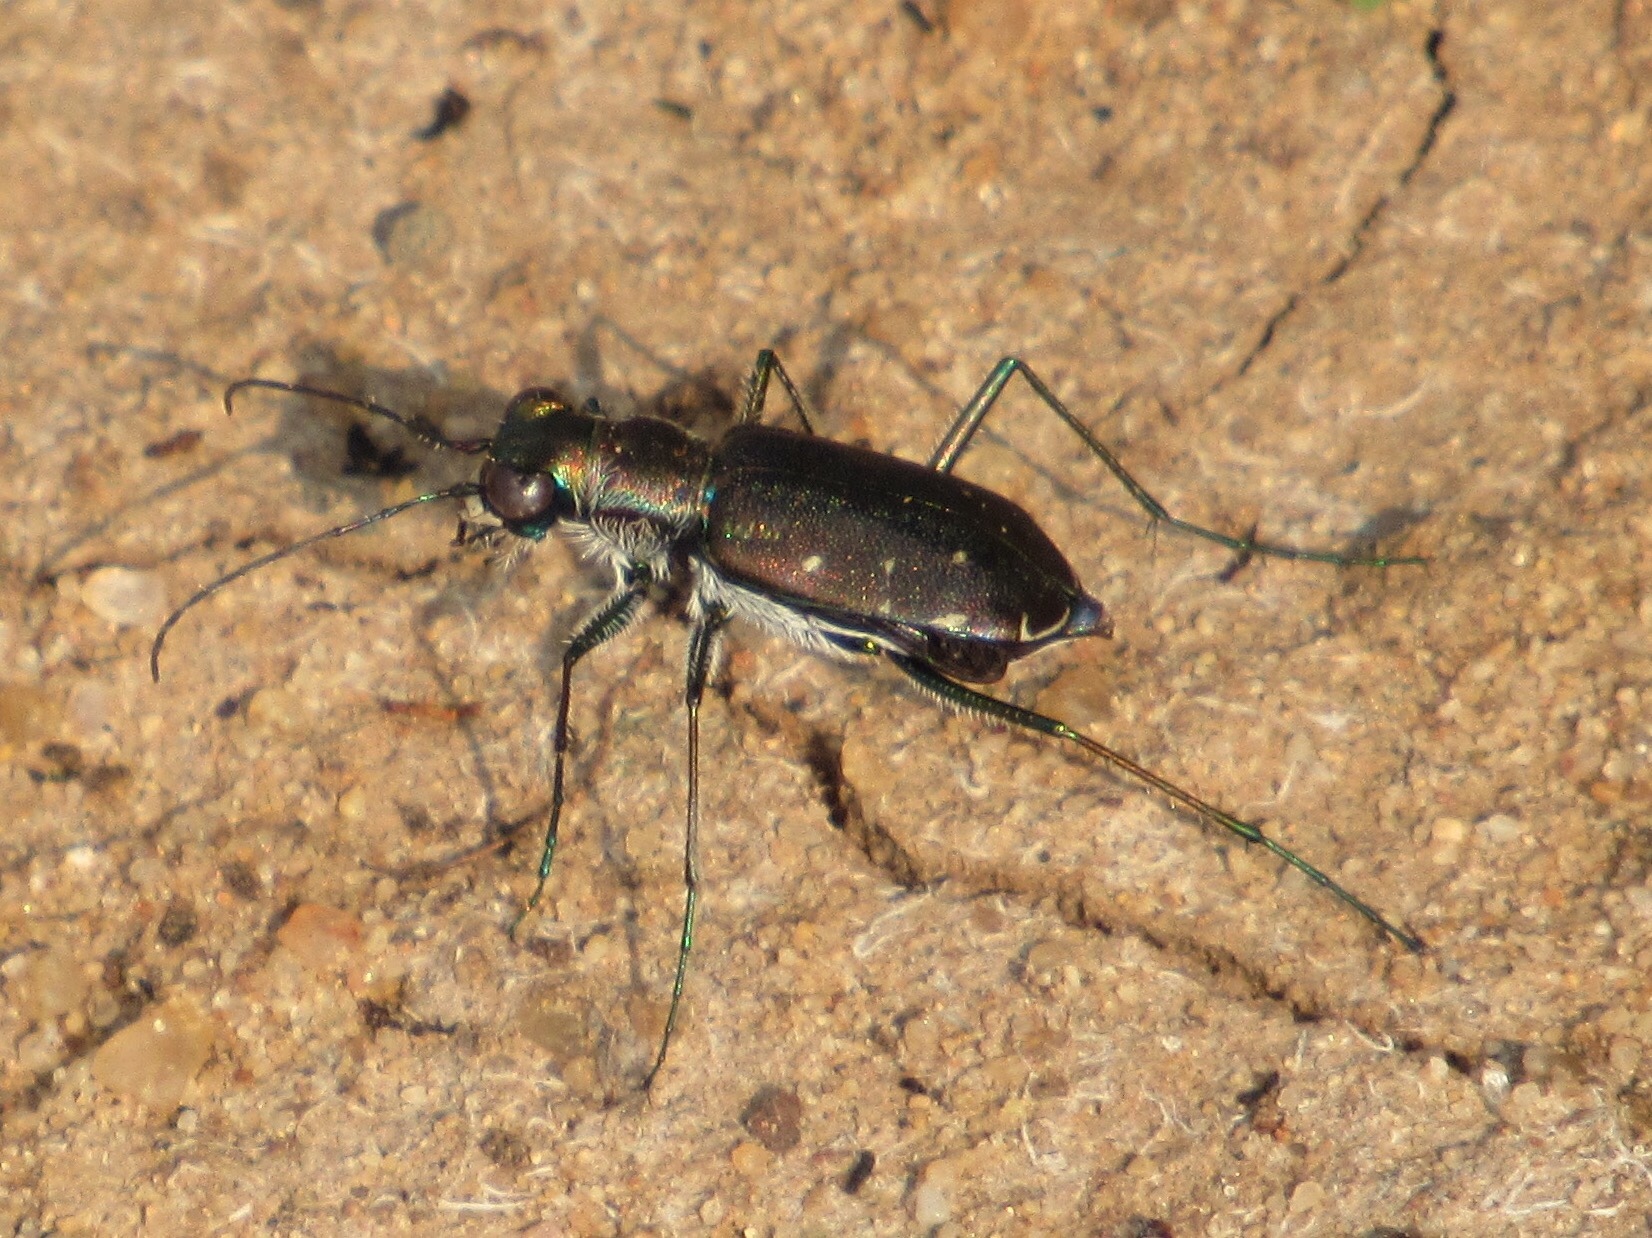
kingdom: Animalia
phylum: Arthropoda
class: Insecta
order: Coleoptera
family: Carabidae
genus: Cicindela
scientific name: Cicindela punctulata
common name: Punctured tiger beetle
